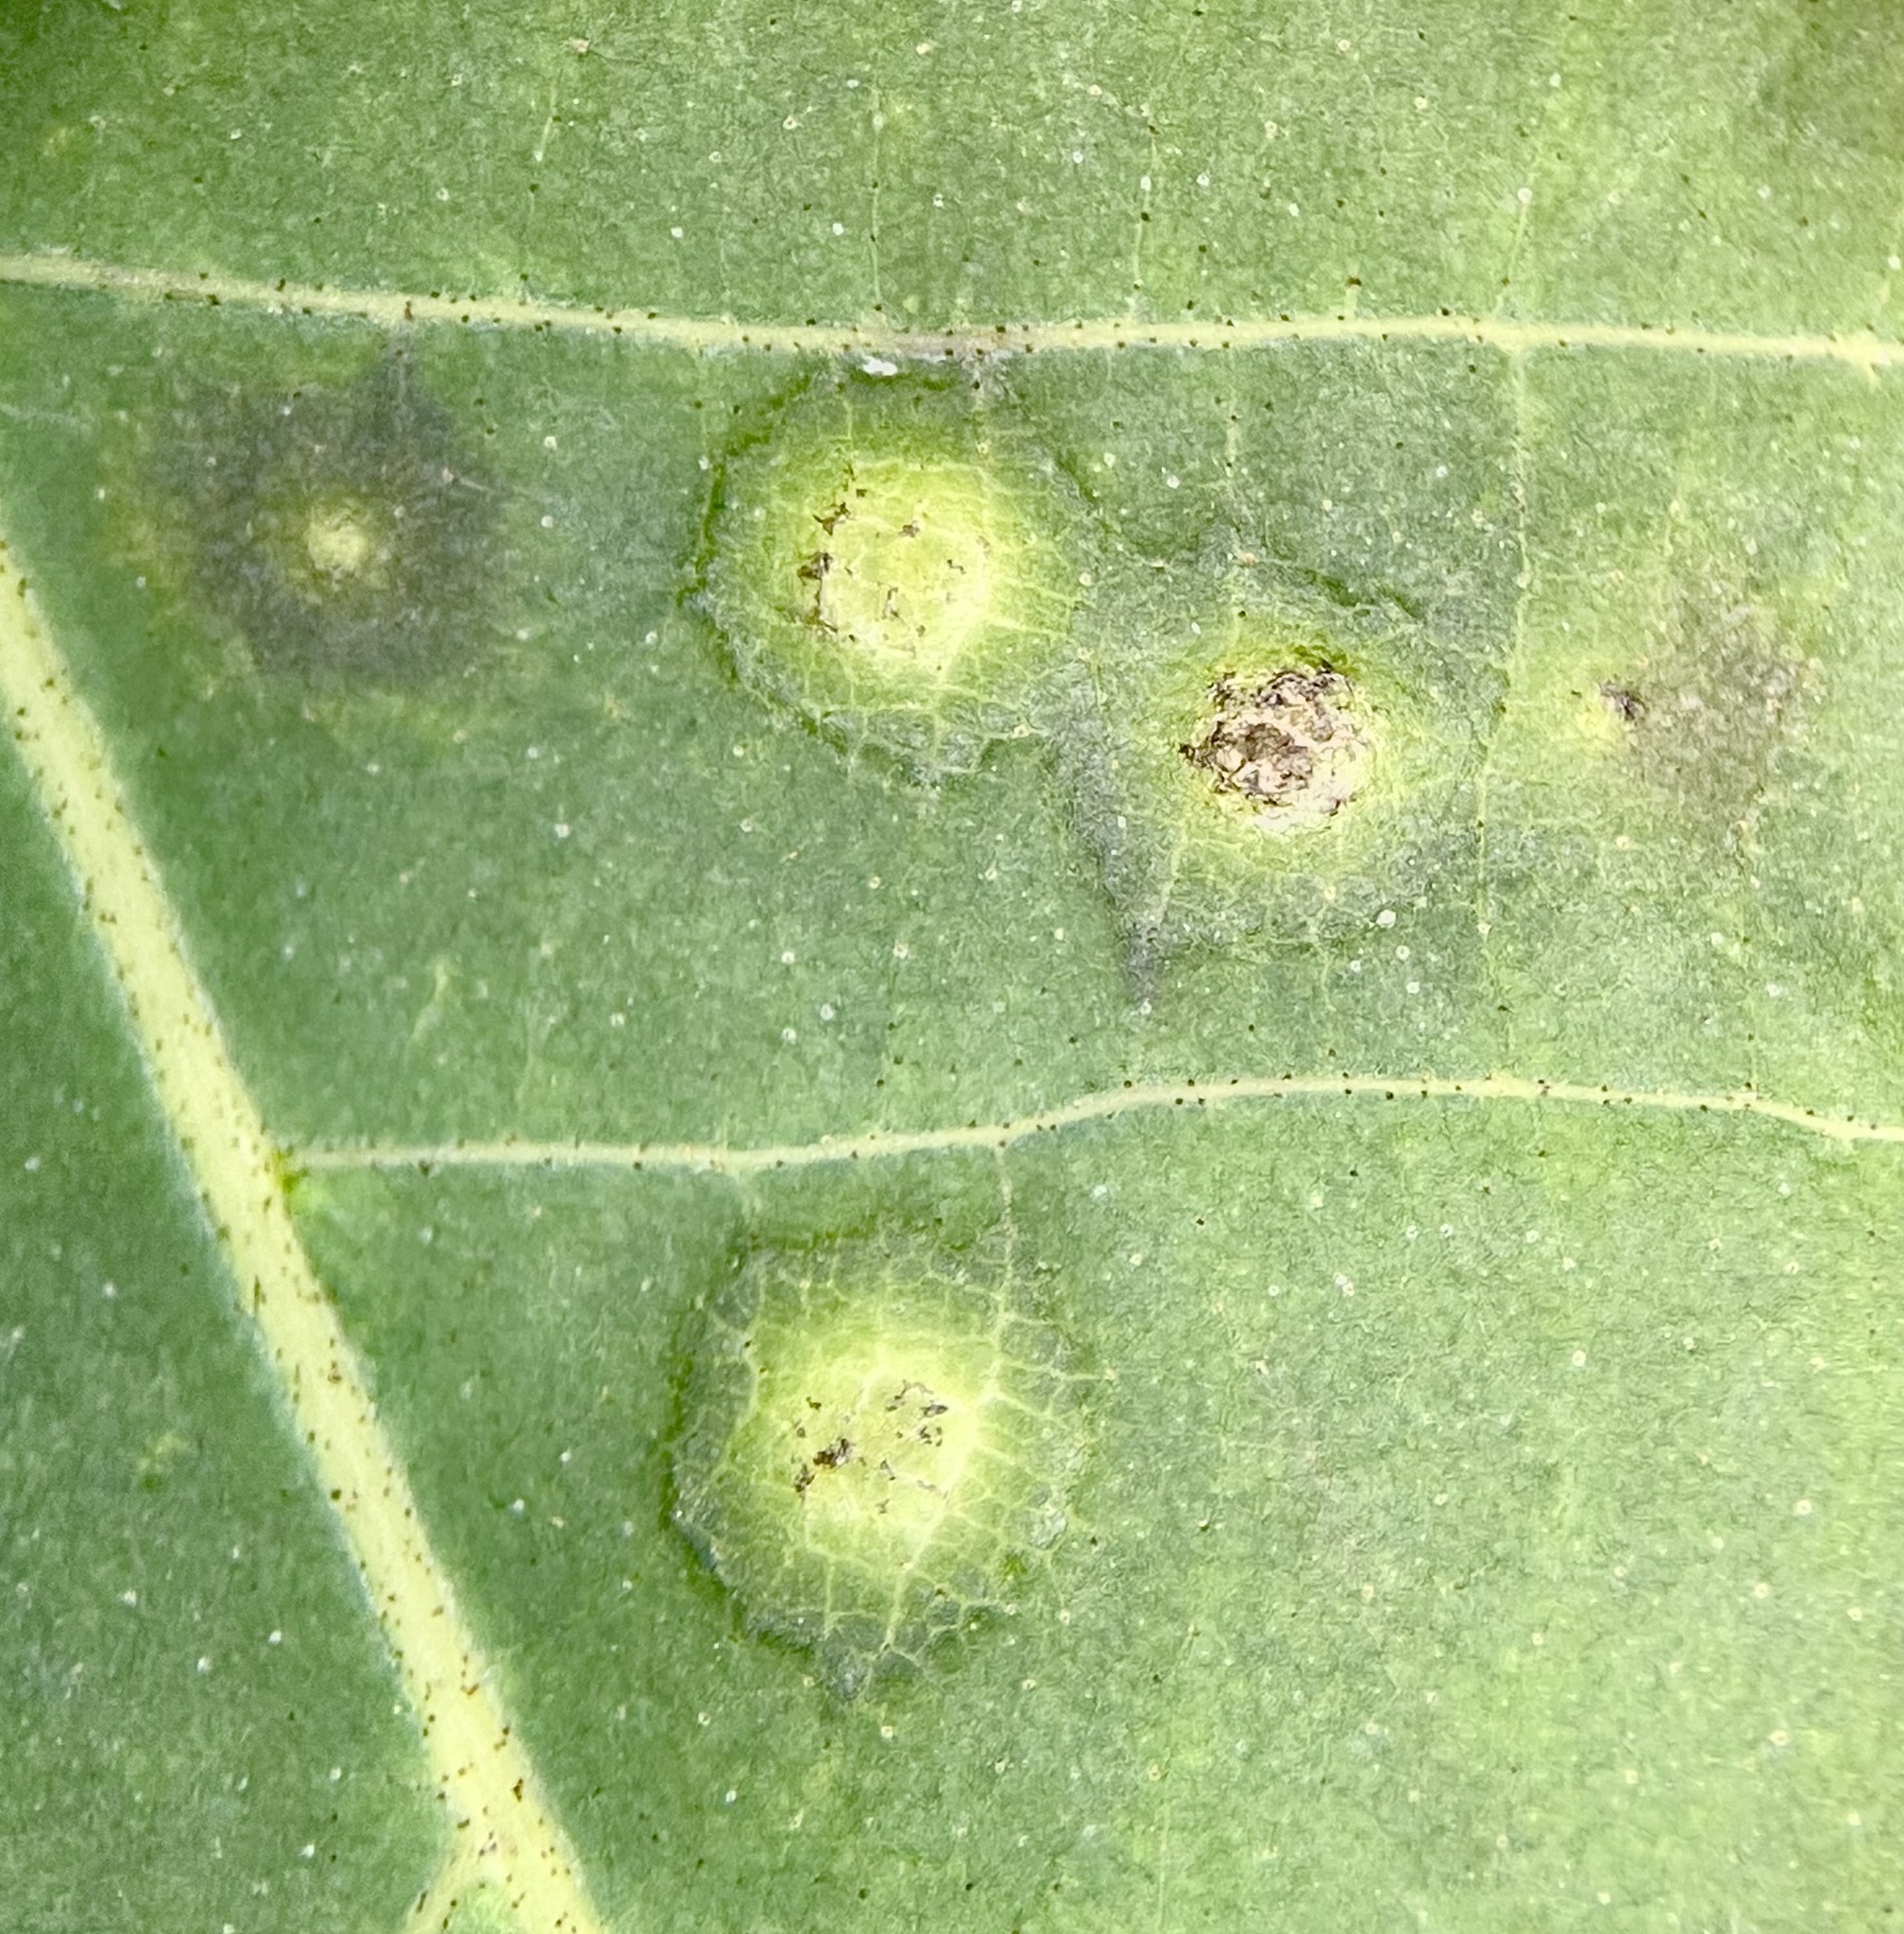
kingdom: Animalia
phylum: Arthropoda
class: Insecta
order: Diptera
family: Cecidomyiidae
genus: Caryadiplosis
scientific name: Caryadiplosis biconvexa
